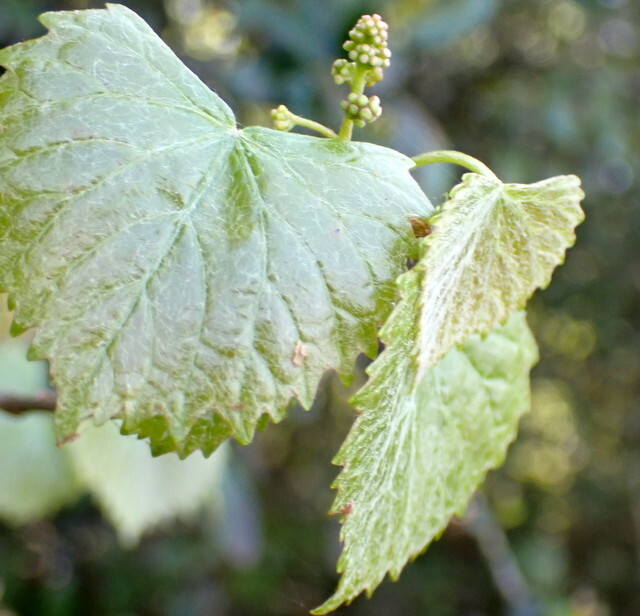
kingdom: Plantae
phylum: Tracheophyta
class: Magnoliopsida
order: Vitales
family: Vitaceae
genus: Vitis
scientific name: Vitis rotundifolia
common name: Muscadine grape
